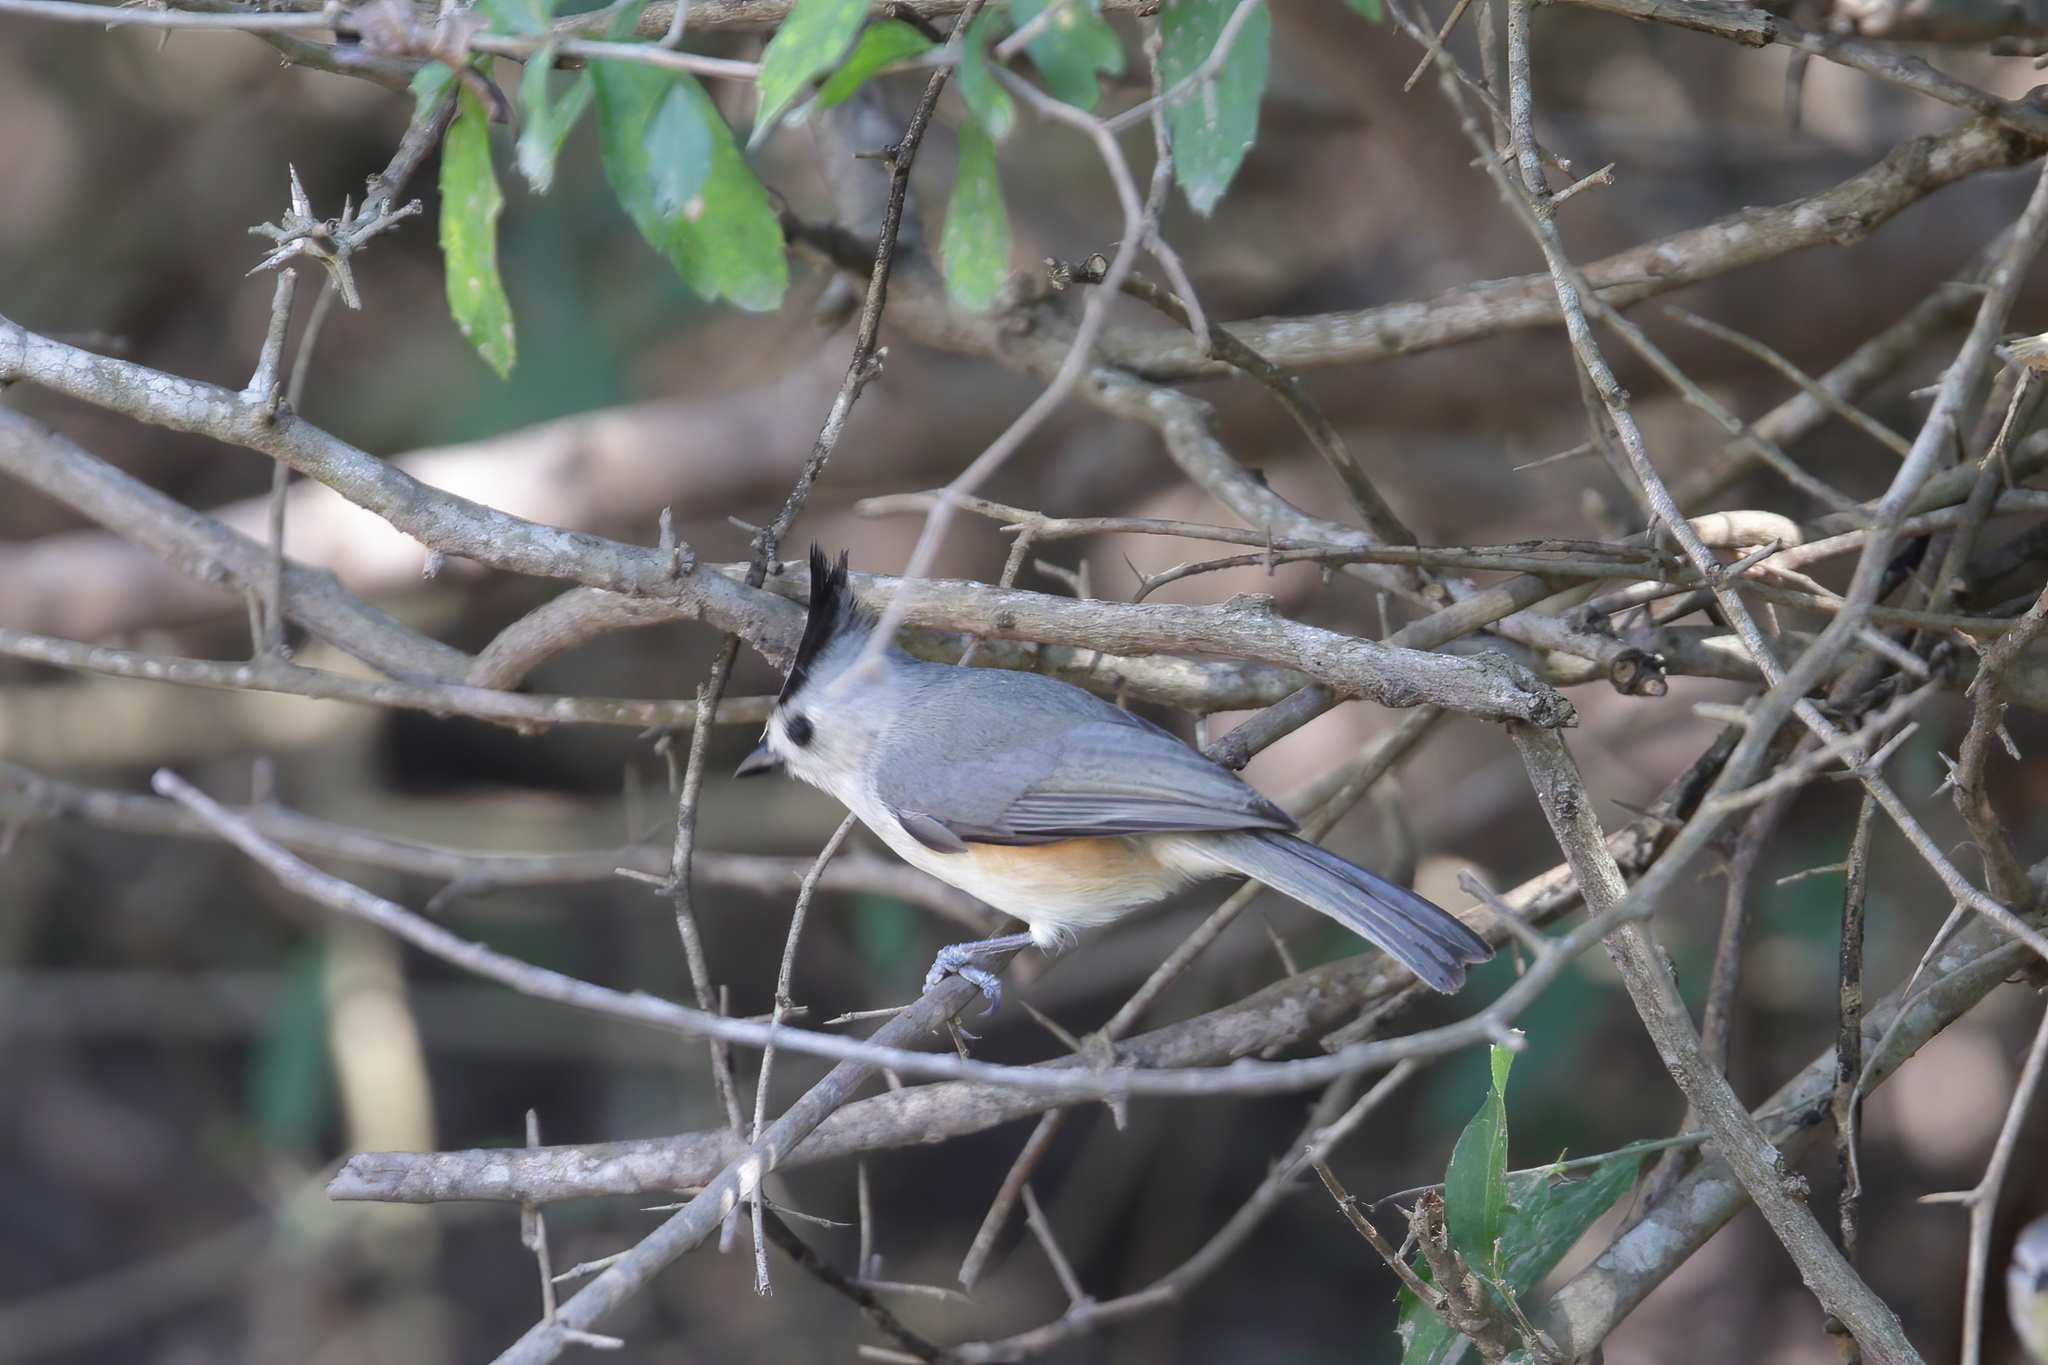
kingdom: Animalia
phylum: Chordata
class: Aves
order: Passeriformes
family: Paridae
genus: Baeolophus
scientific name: Baeolophus atricristatus
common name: Black-crested titmouse
